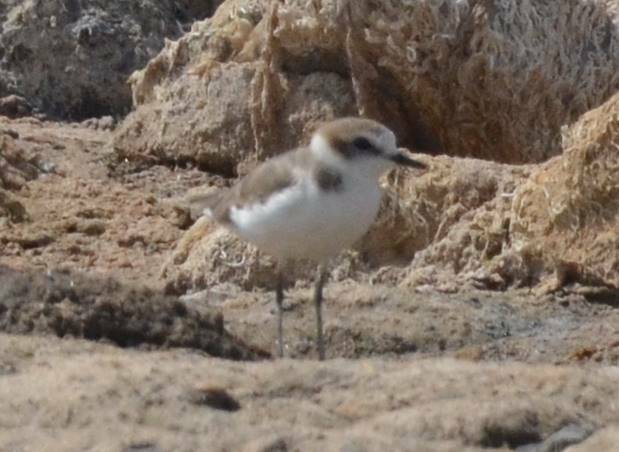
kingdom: Animalia
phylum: Chordata
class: Aves
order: Charadriiformes
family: Charadriidae
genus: Charadrius
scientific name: Charadrius alexandrinus
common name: Kentish plover
